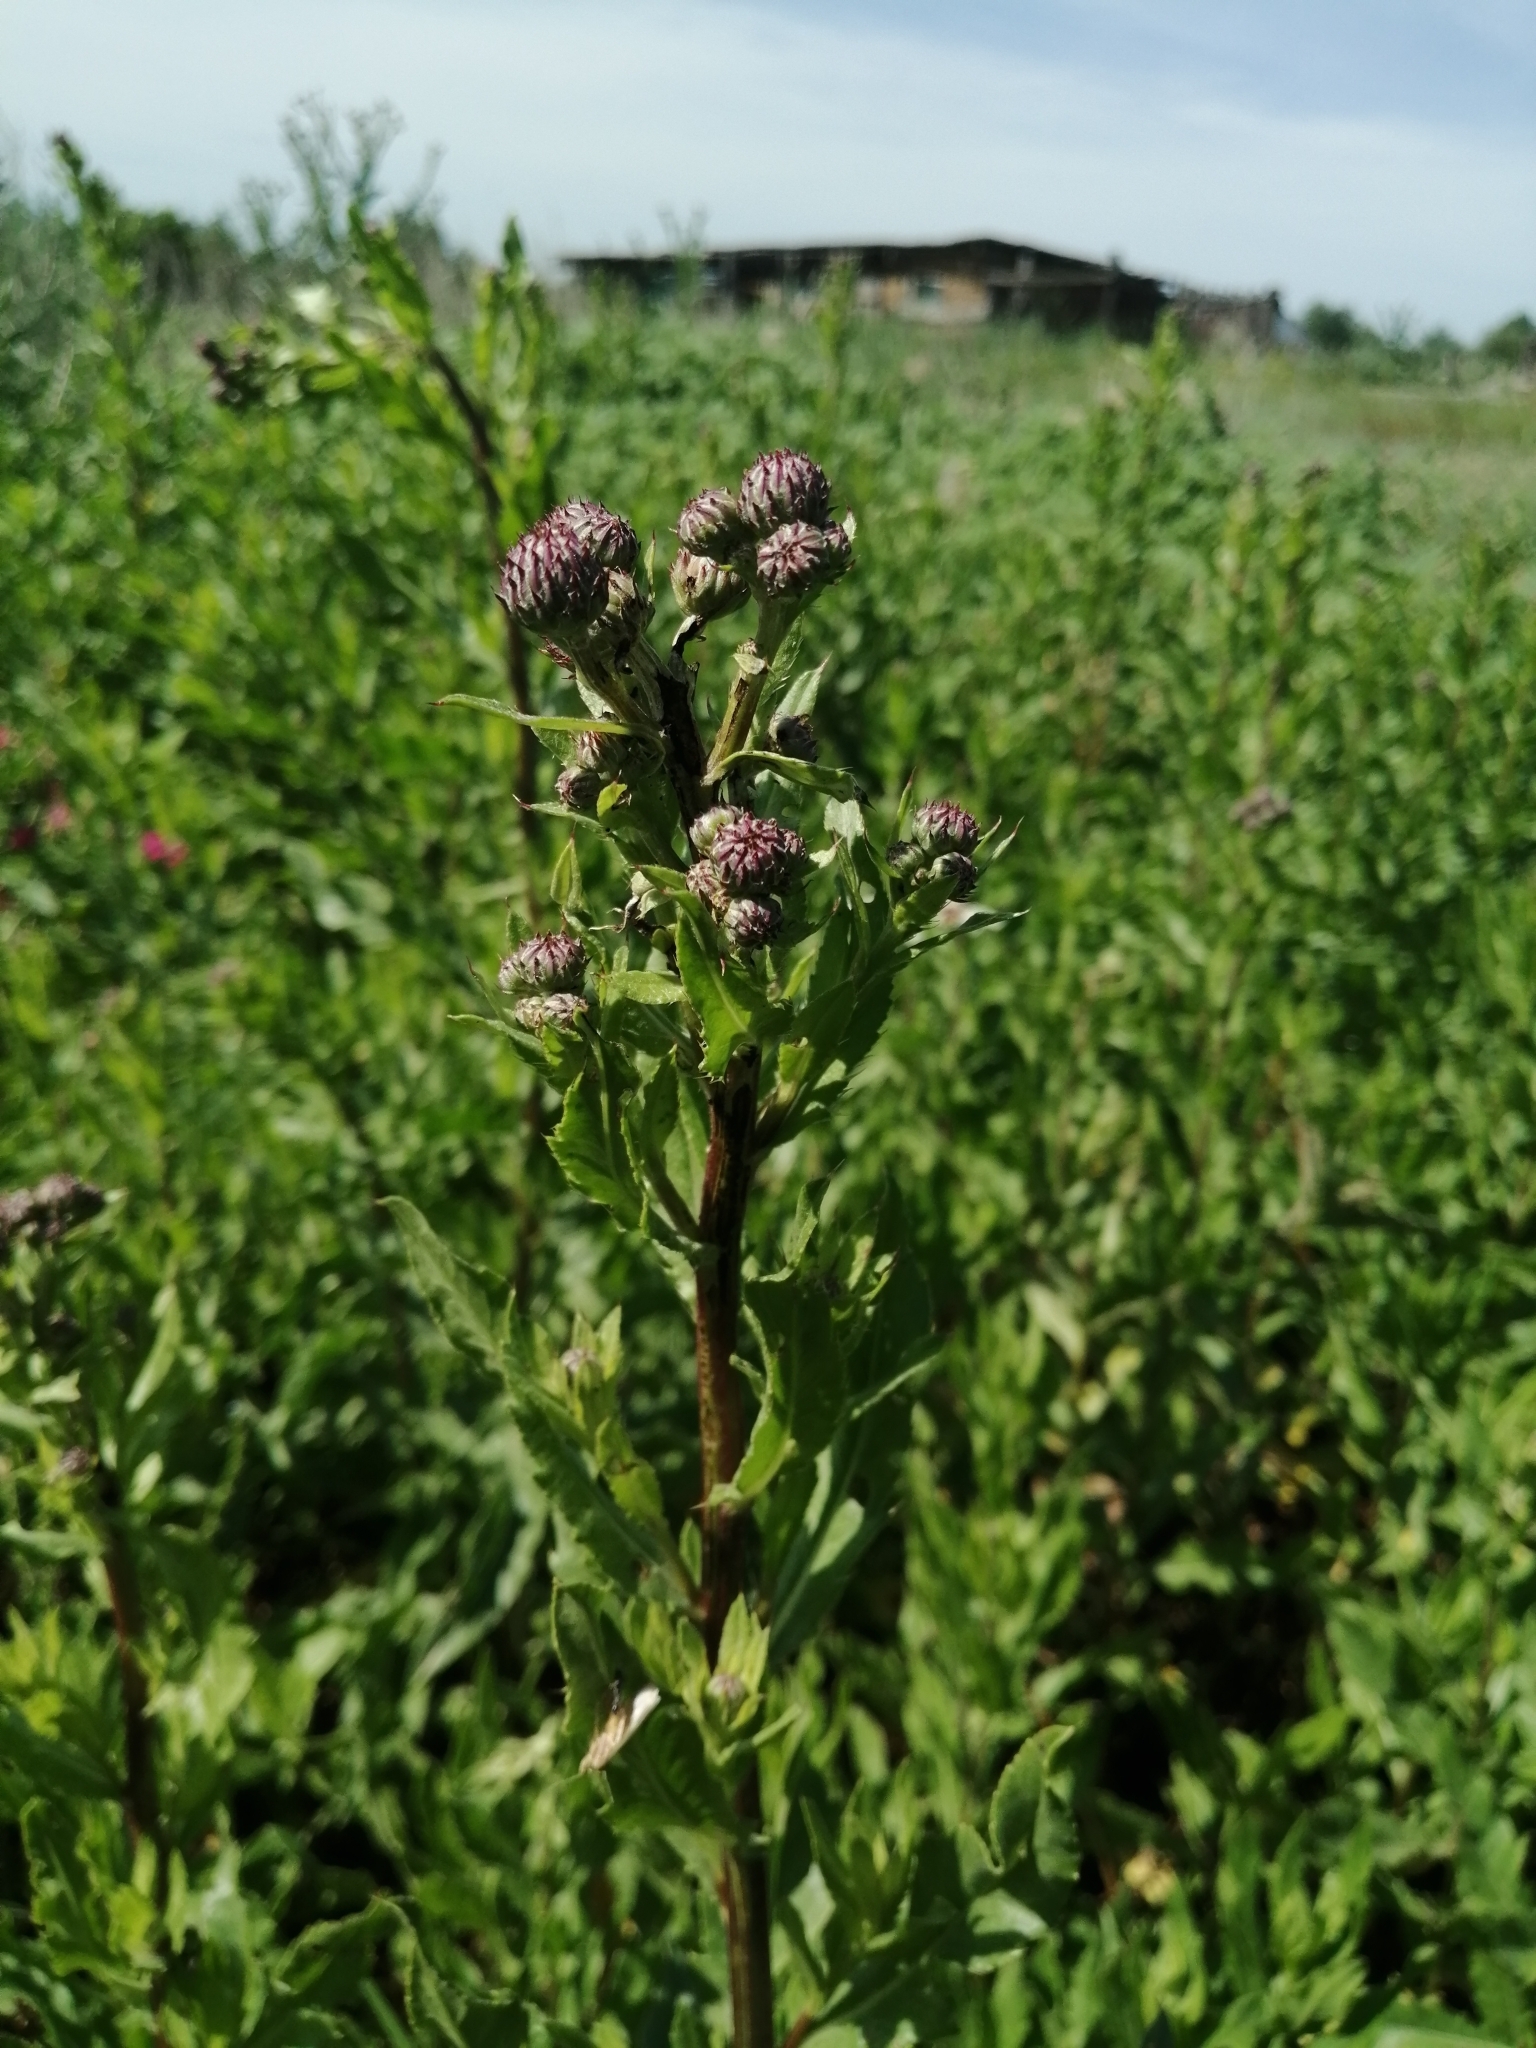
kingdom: Plantae
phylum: Tracheophyta
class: Magnoliopsida
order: Asterales
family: Asteraceae
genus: Cirsium
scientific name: Cirsium arvense
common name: Creeping thistle
